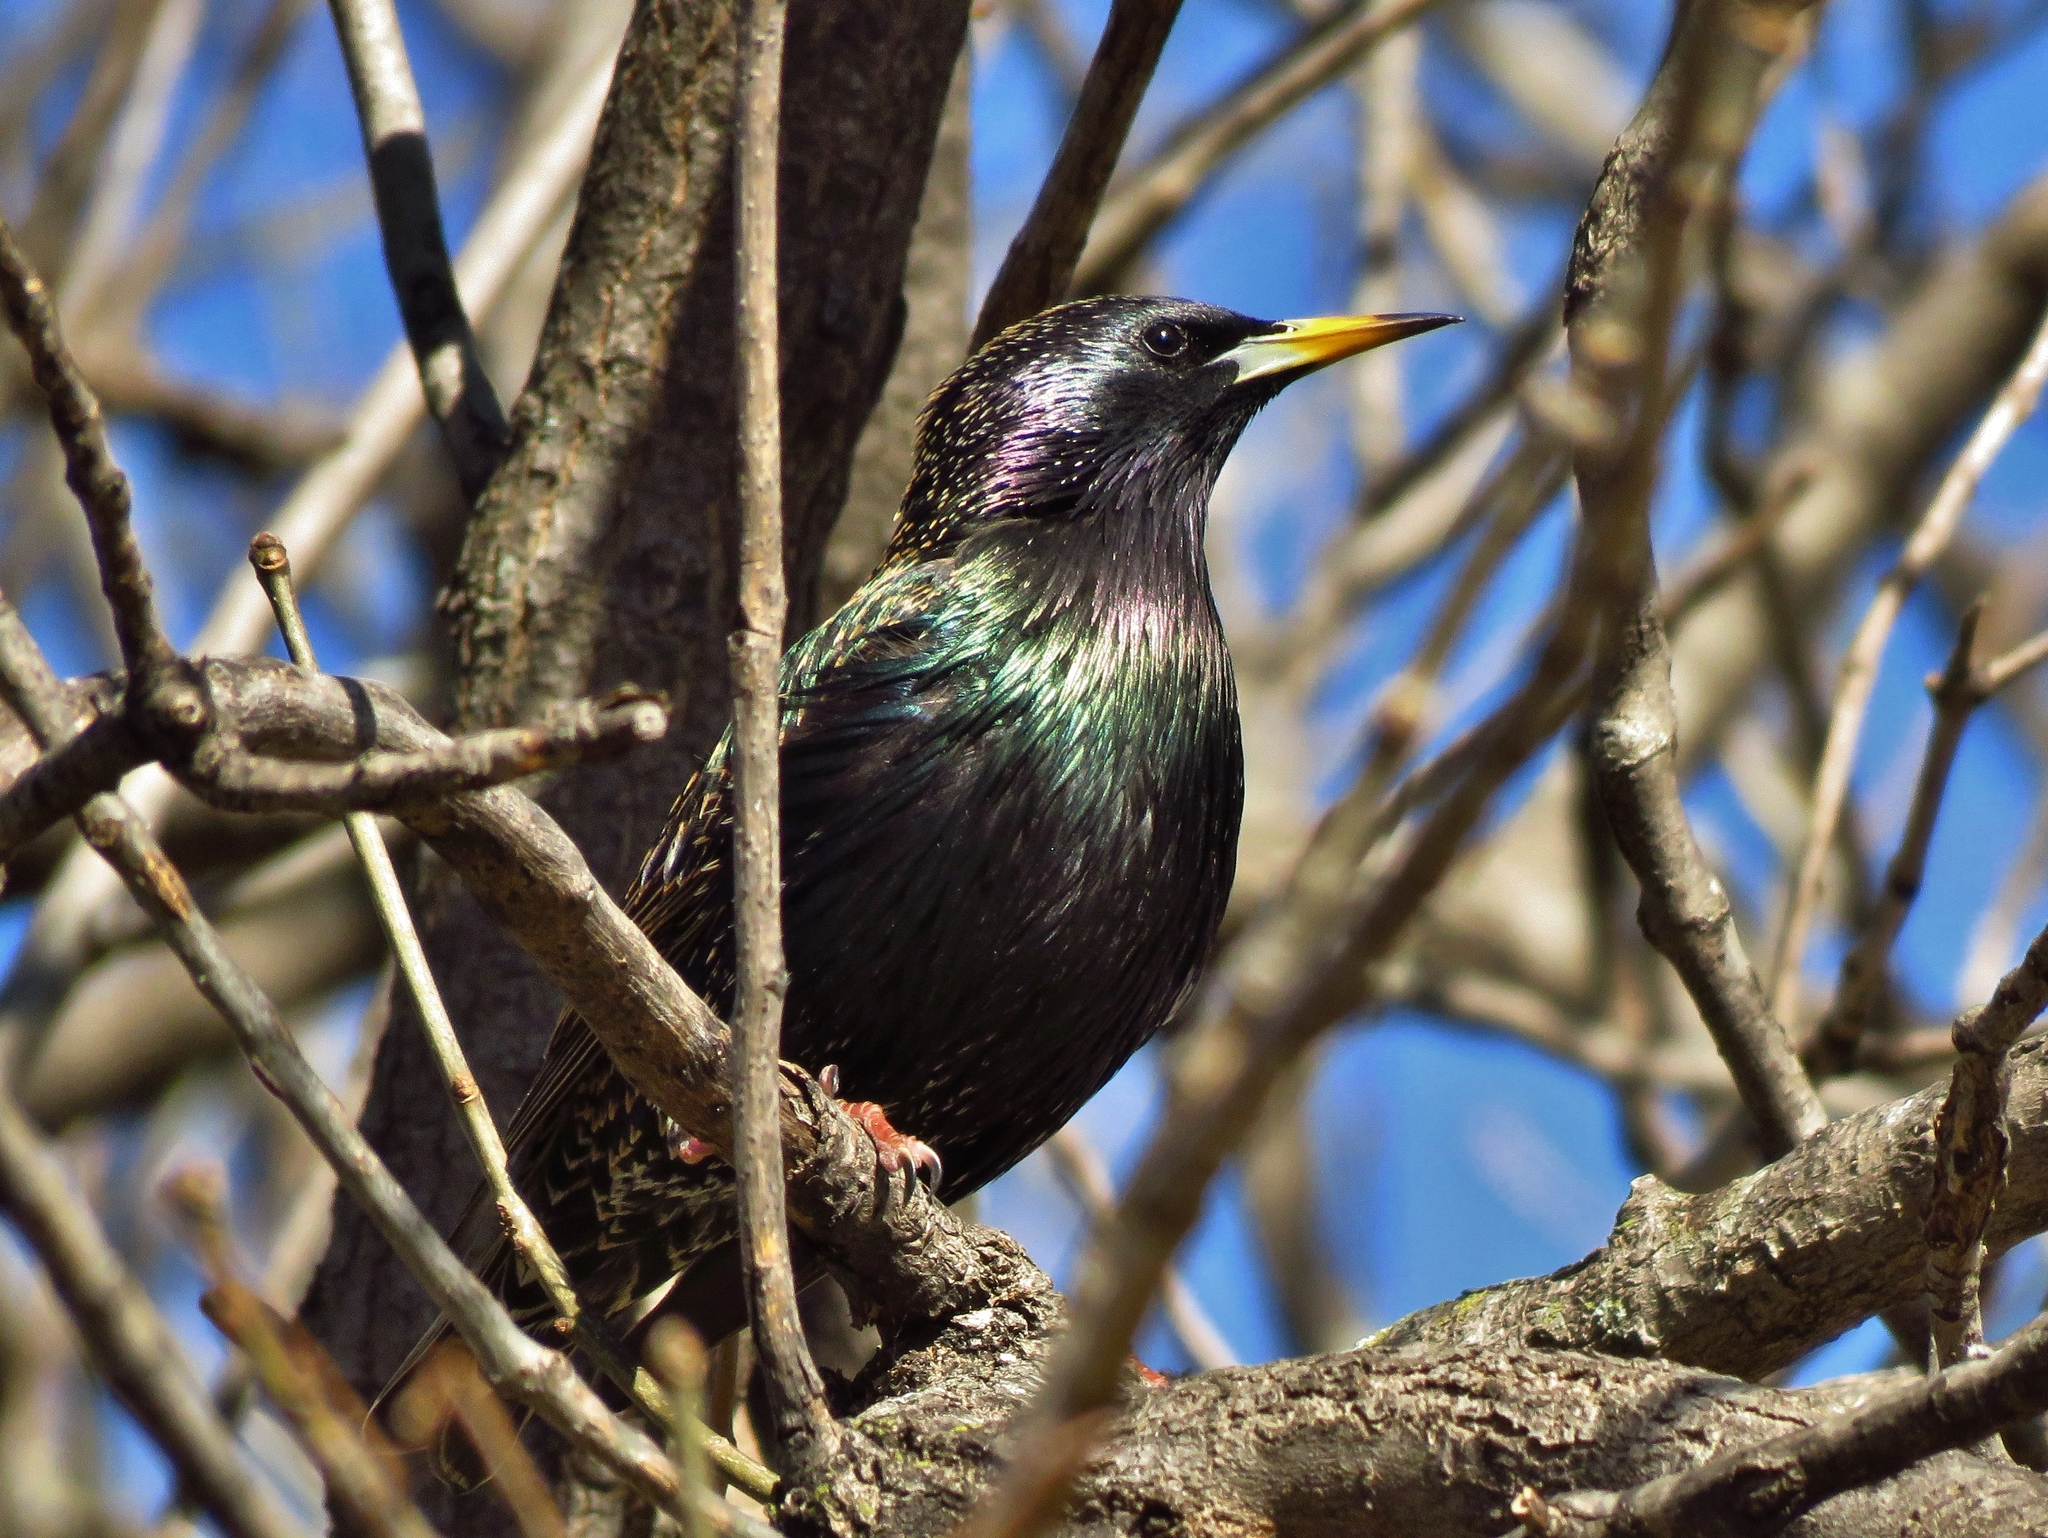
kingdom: Animalia
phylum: Chordata
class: Aves
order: Passeriformes
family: Sturnidae
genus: Sturnus
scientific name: Sturnus vulgaris
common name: Common starling
